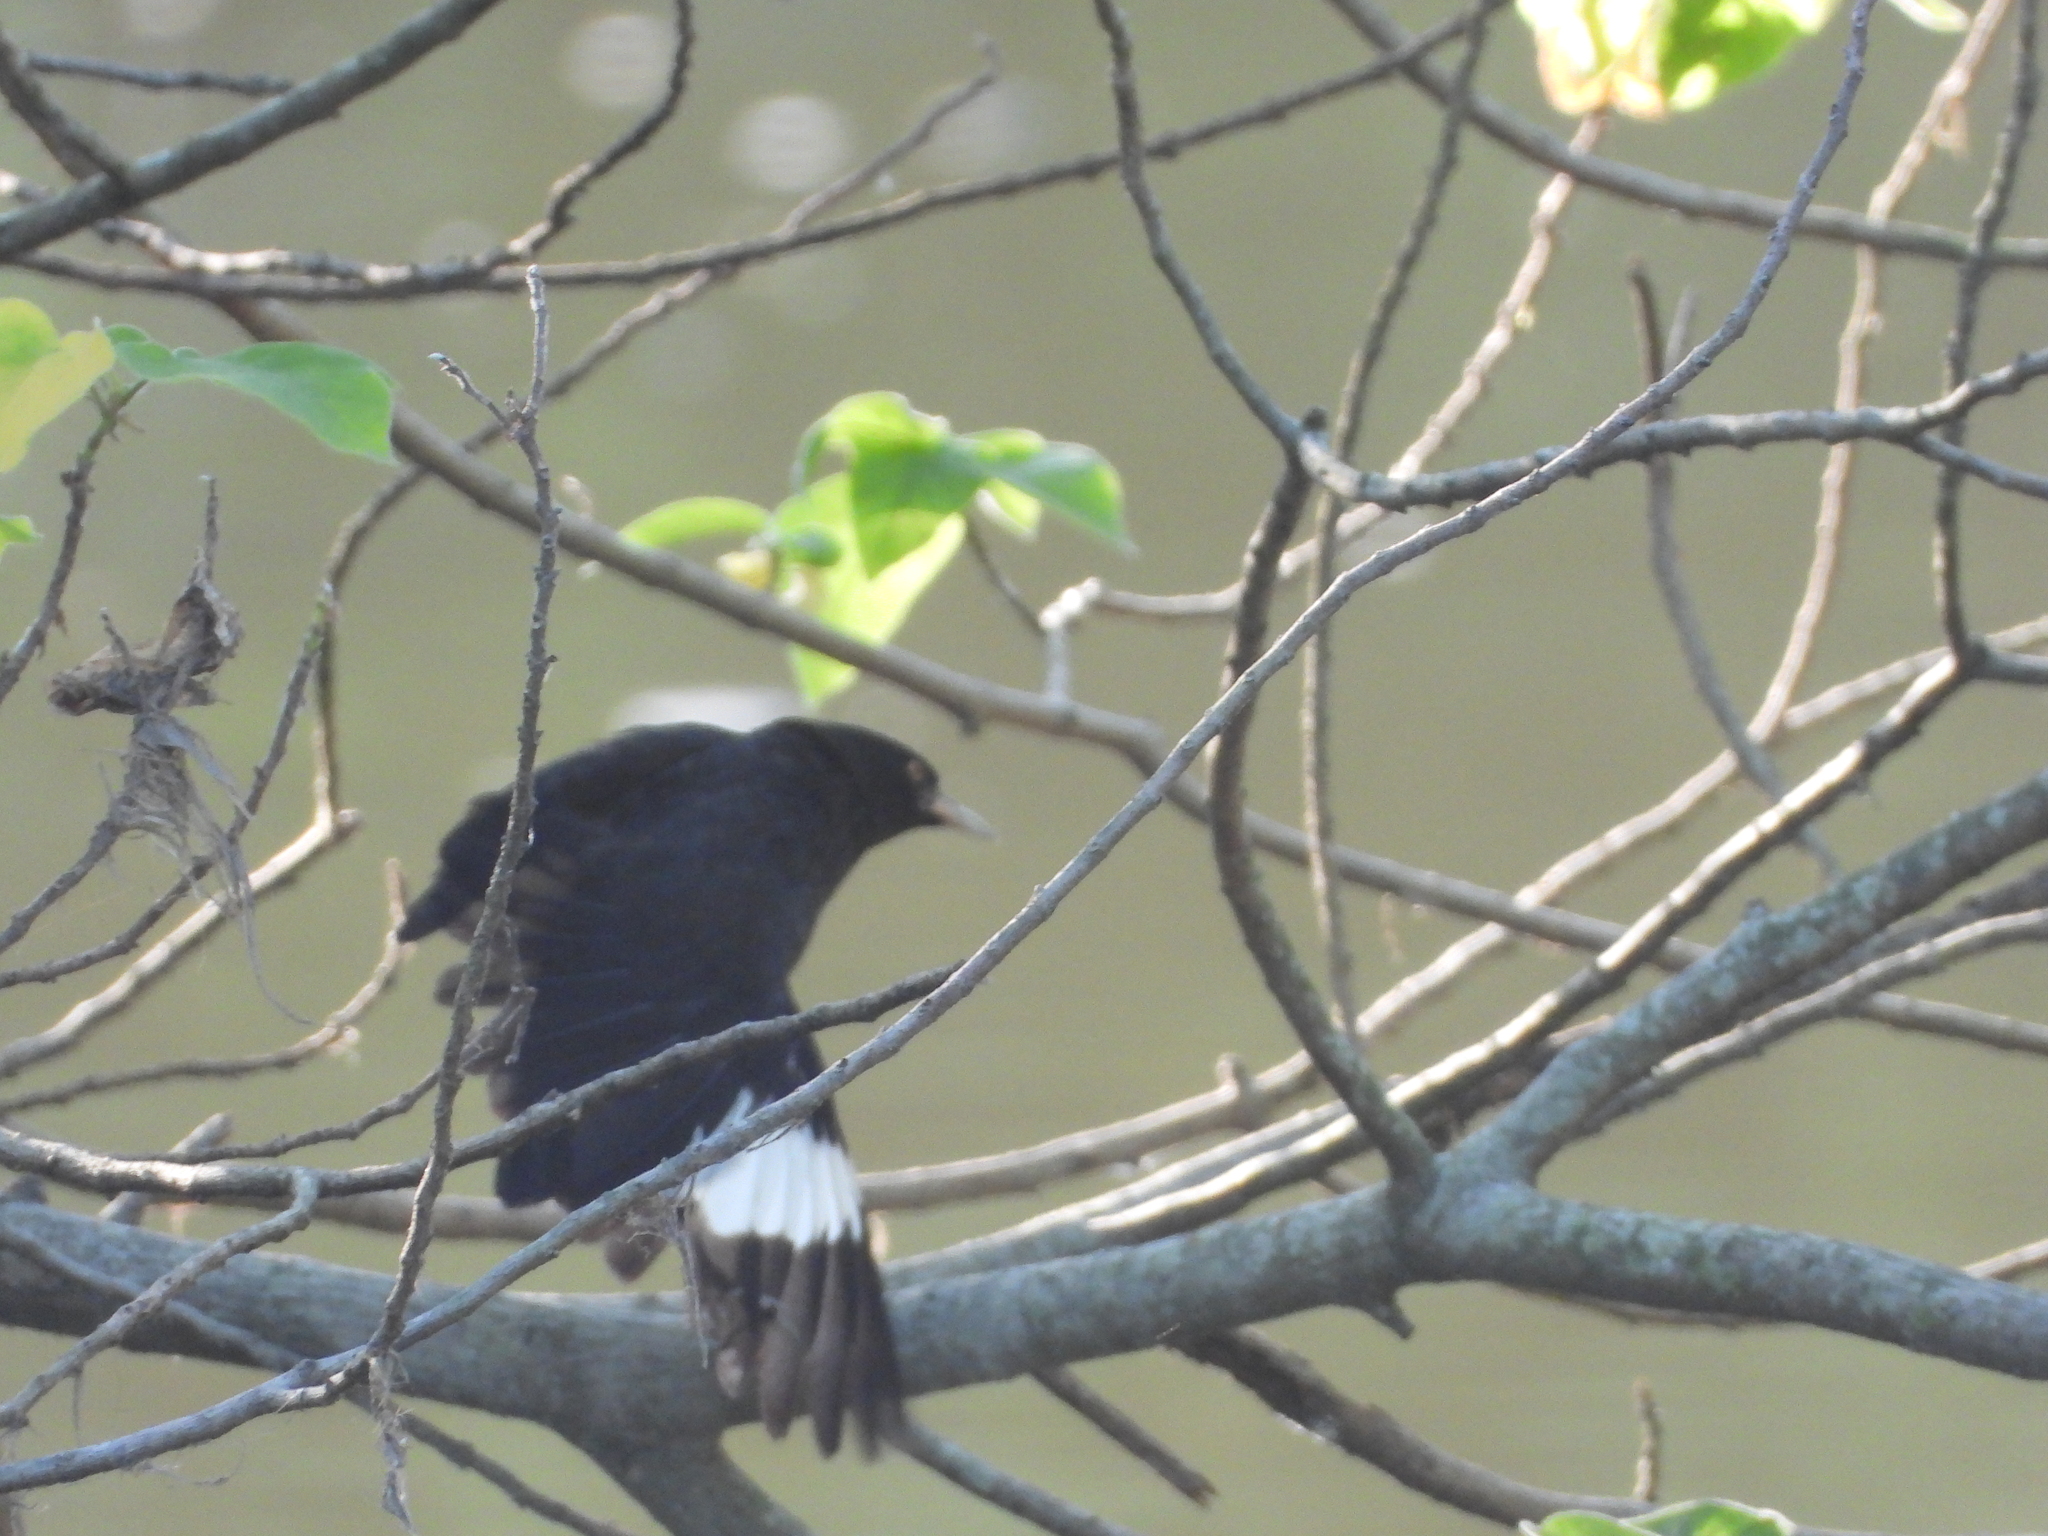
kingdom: Animalia
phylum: Chordata
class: Aves
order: Passeriformes
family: Sturnidae
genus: Acridotheres
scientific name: Acridotheres cristatellus
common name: Crested myna
